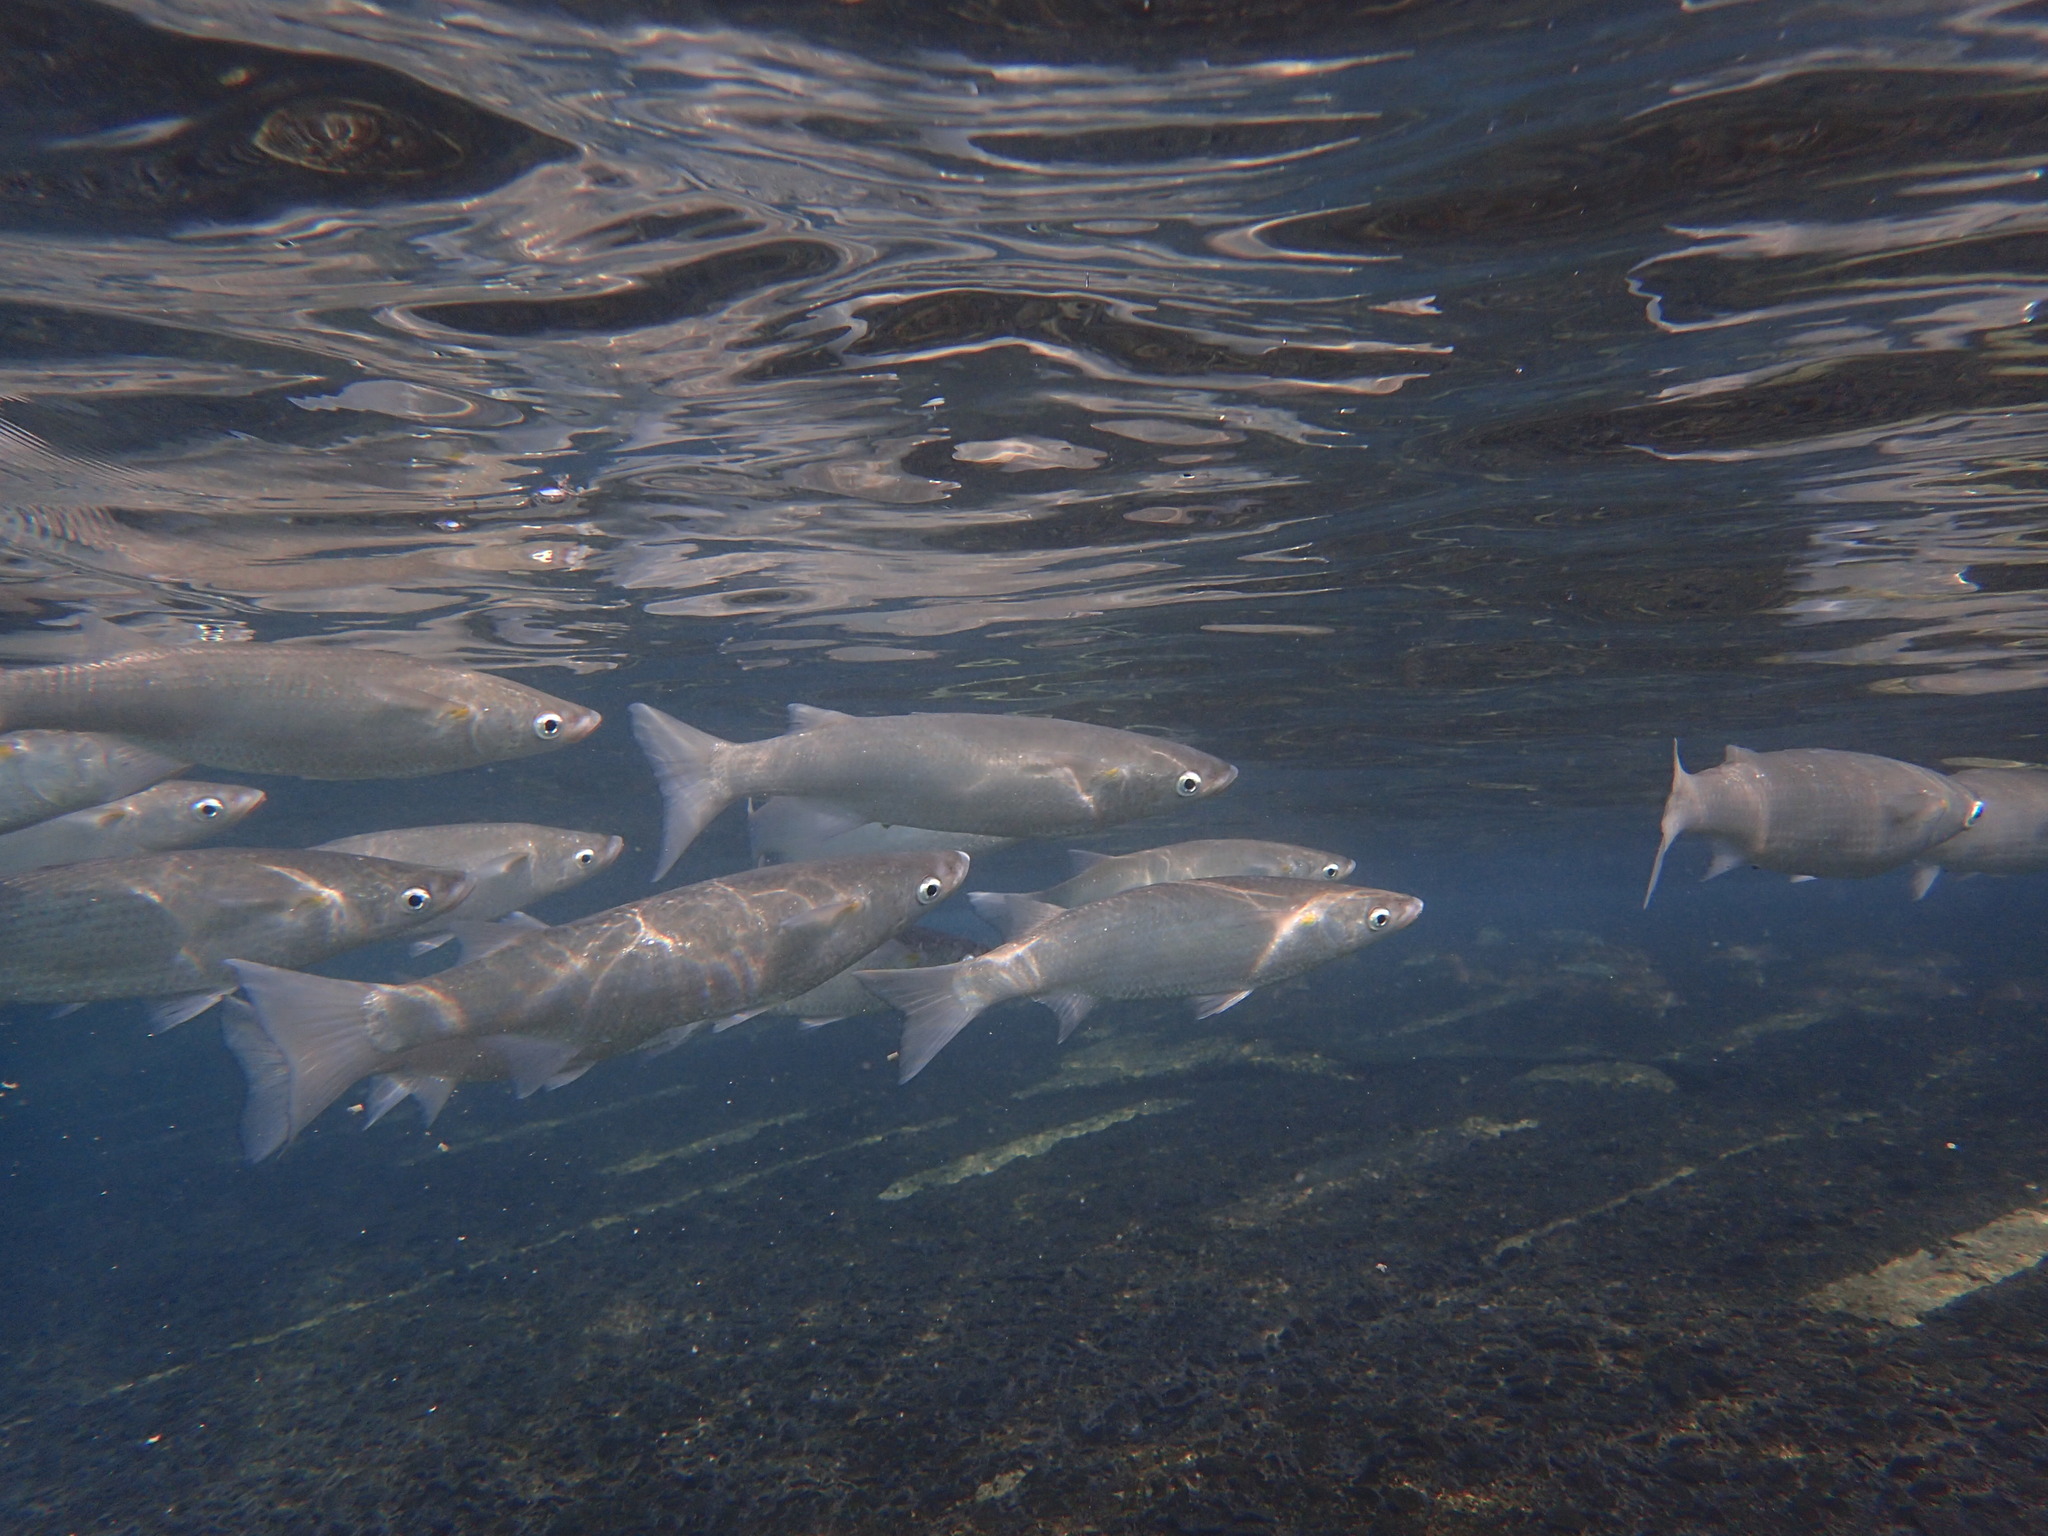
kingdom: Animalia
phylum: Chordata
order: Mugiliformes
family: Mugilidae
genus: Neomyxus
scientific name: Neomyxus leuciscus
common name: Acute-jawed mullet
